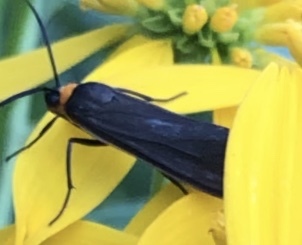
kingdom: Animalia
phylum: Arthropoda
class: Insecta
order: Lepidoptera
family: Erebidae
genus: Cisseps
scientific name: Cisseps fulvicollis
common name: Yellow-collared scape moth
